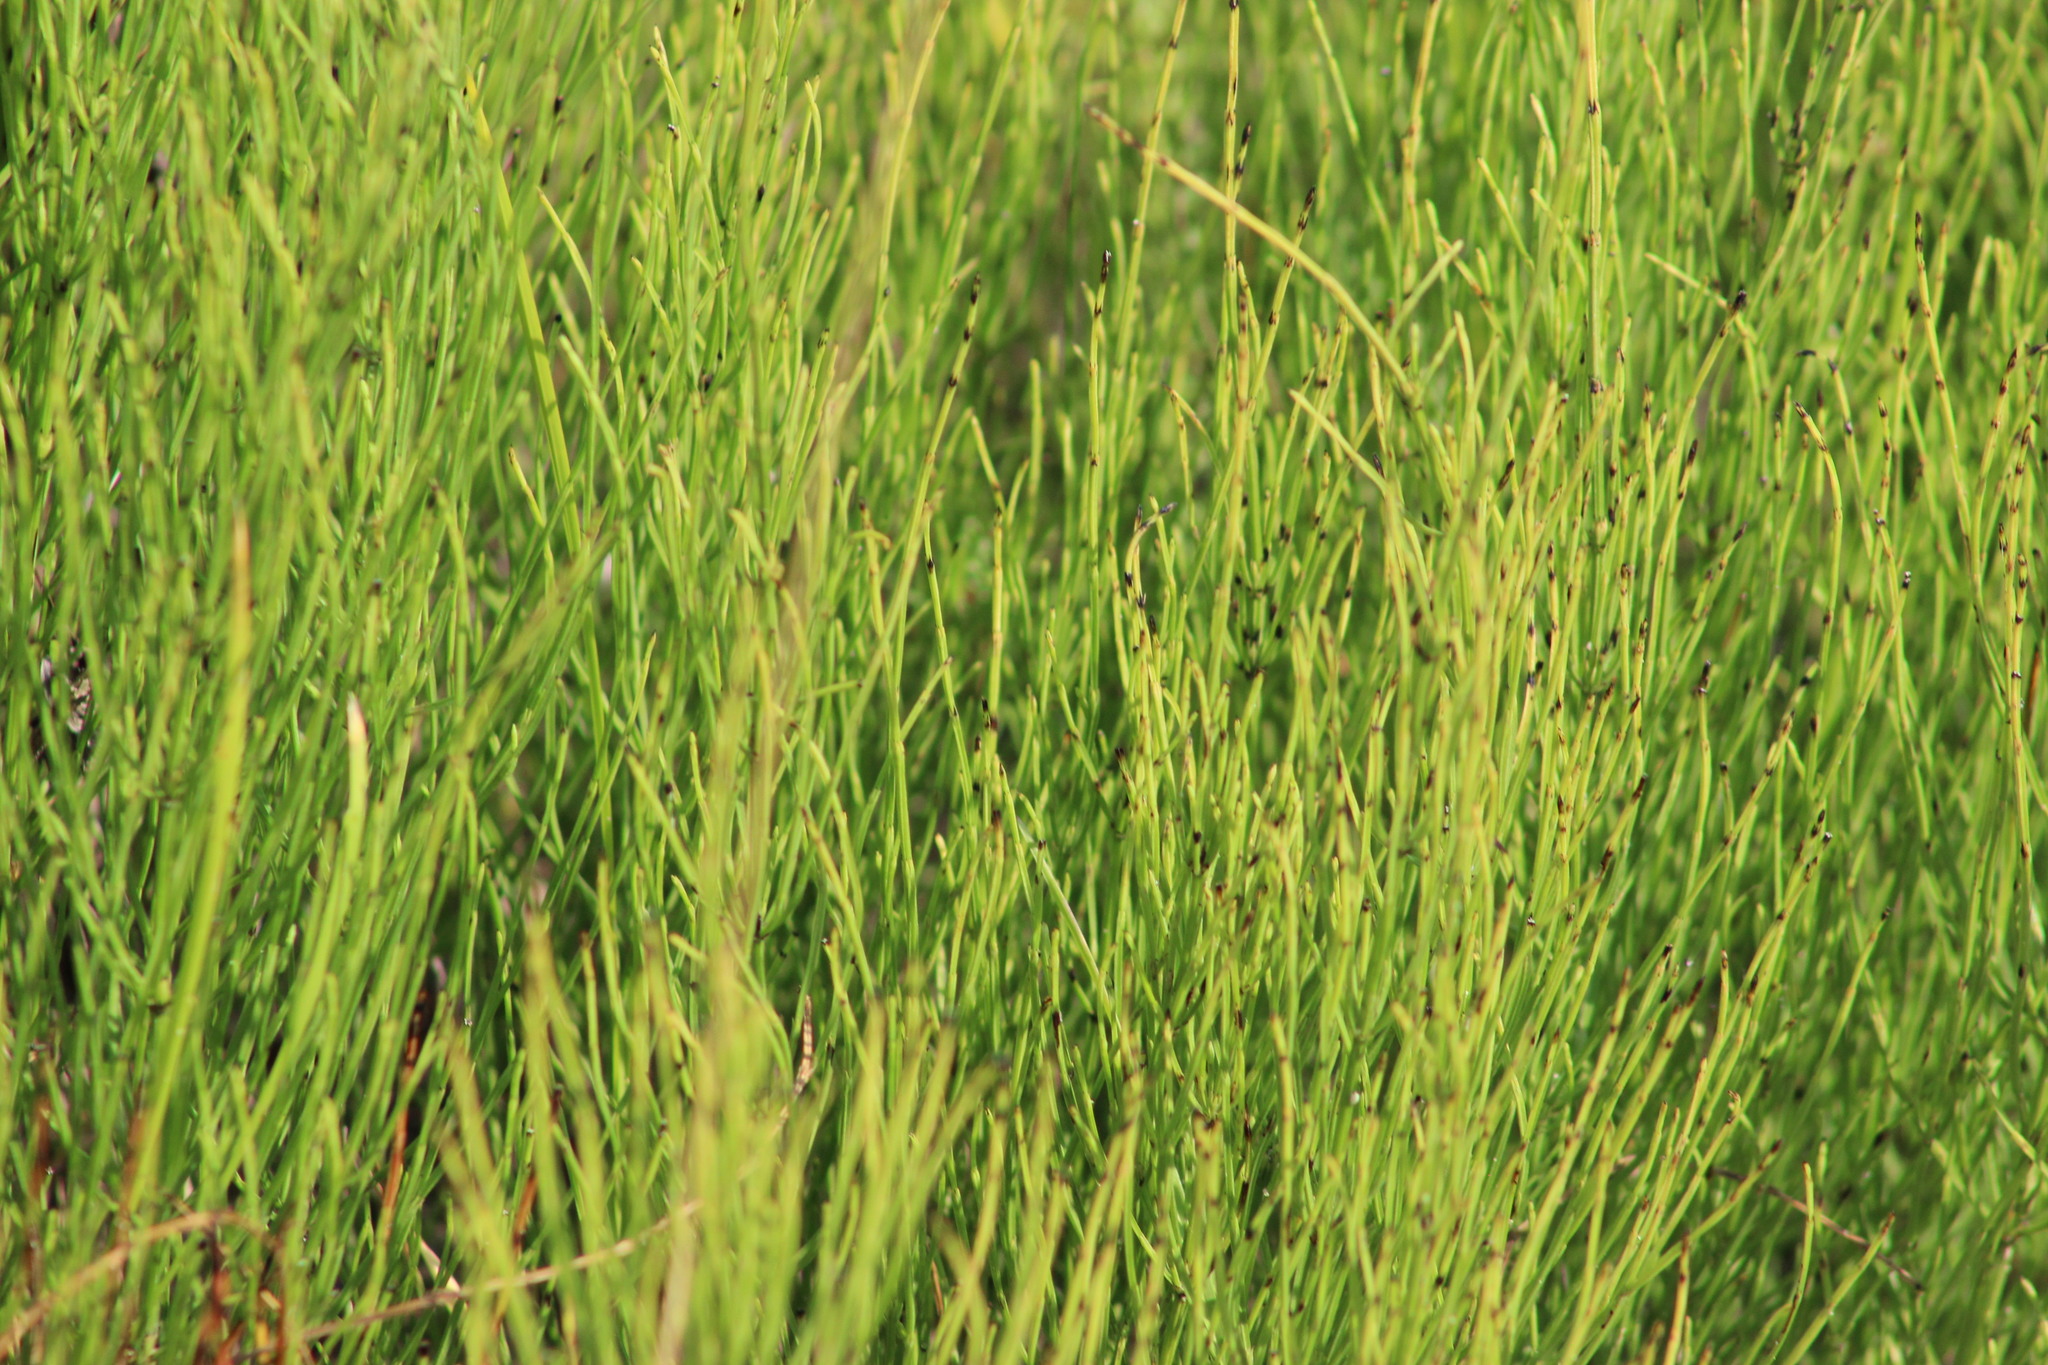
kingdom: Plantae
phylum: Tracheophyta
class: Polypodiopsida
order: Equisetales
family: Equisetaceae
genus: Equisetum
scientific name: Equisetum arvense
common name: Field horsetail
